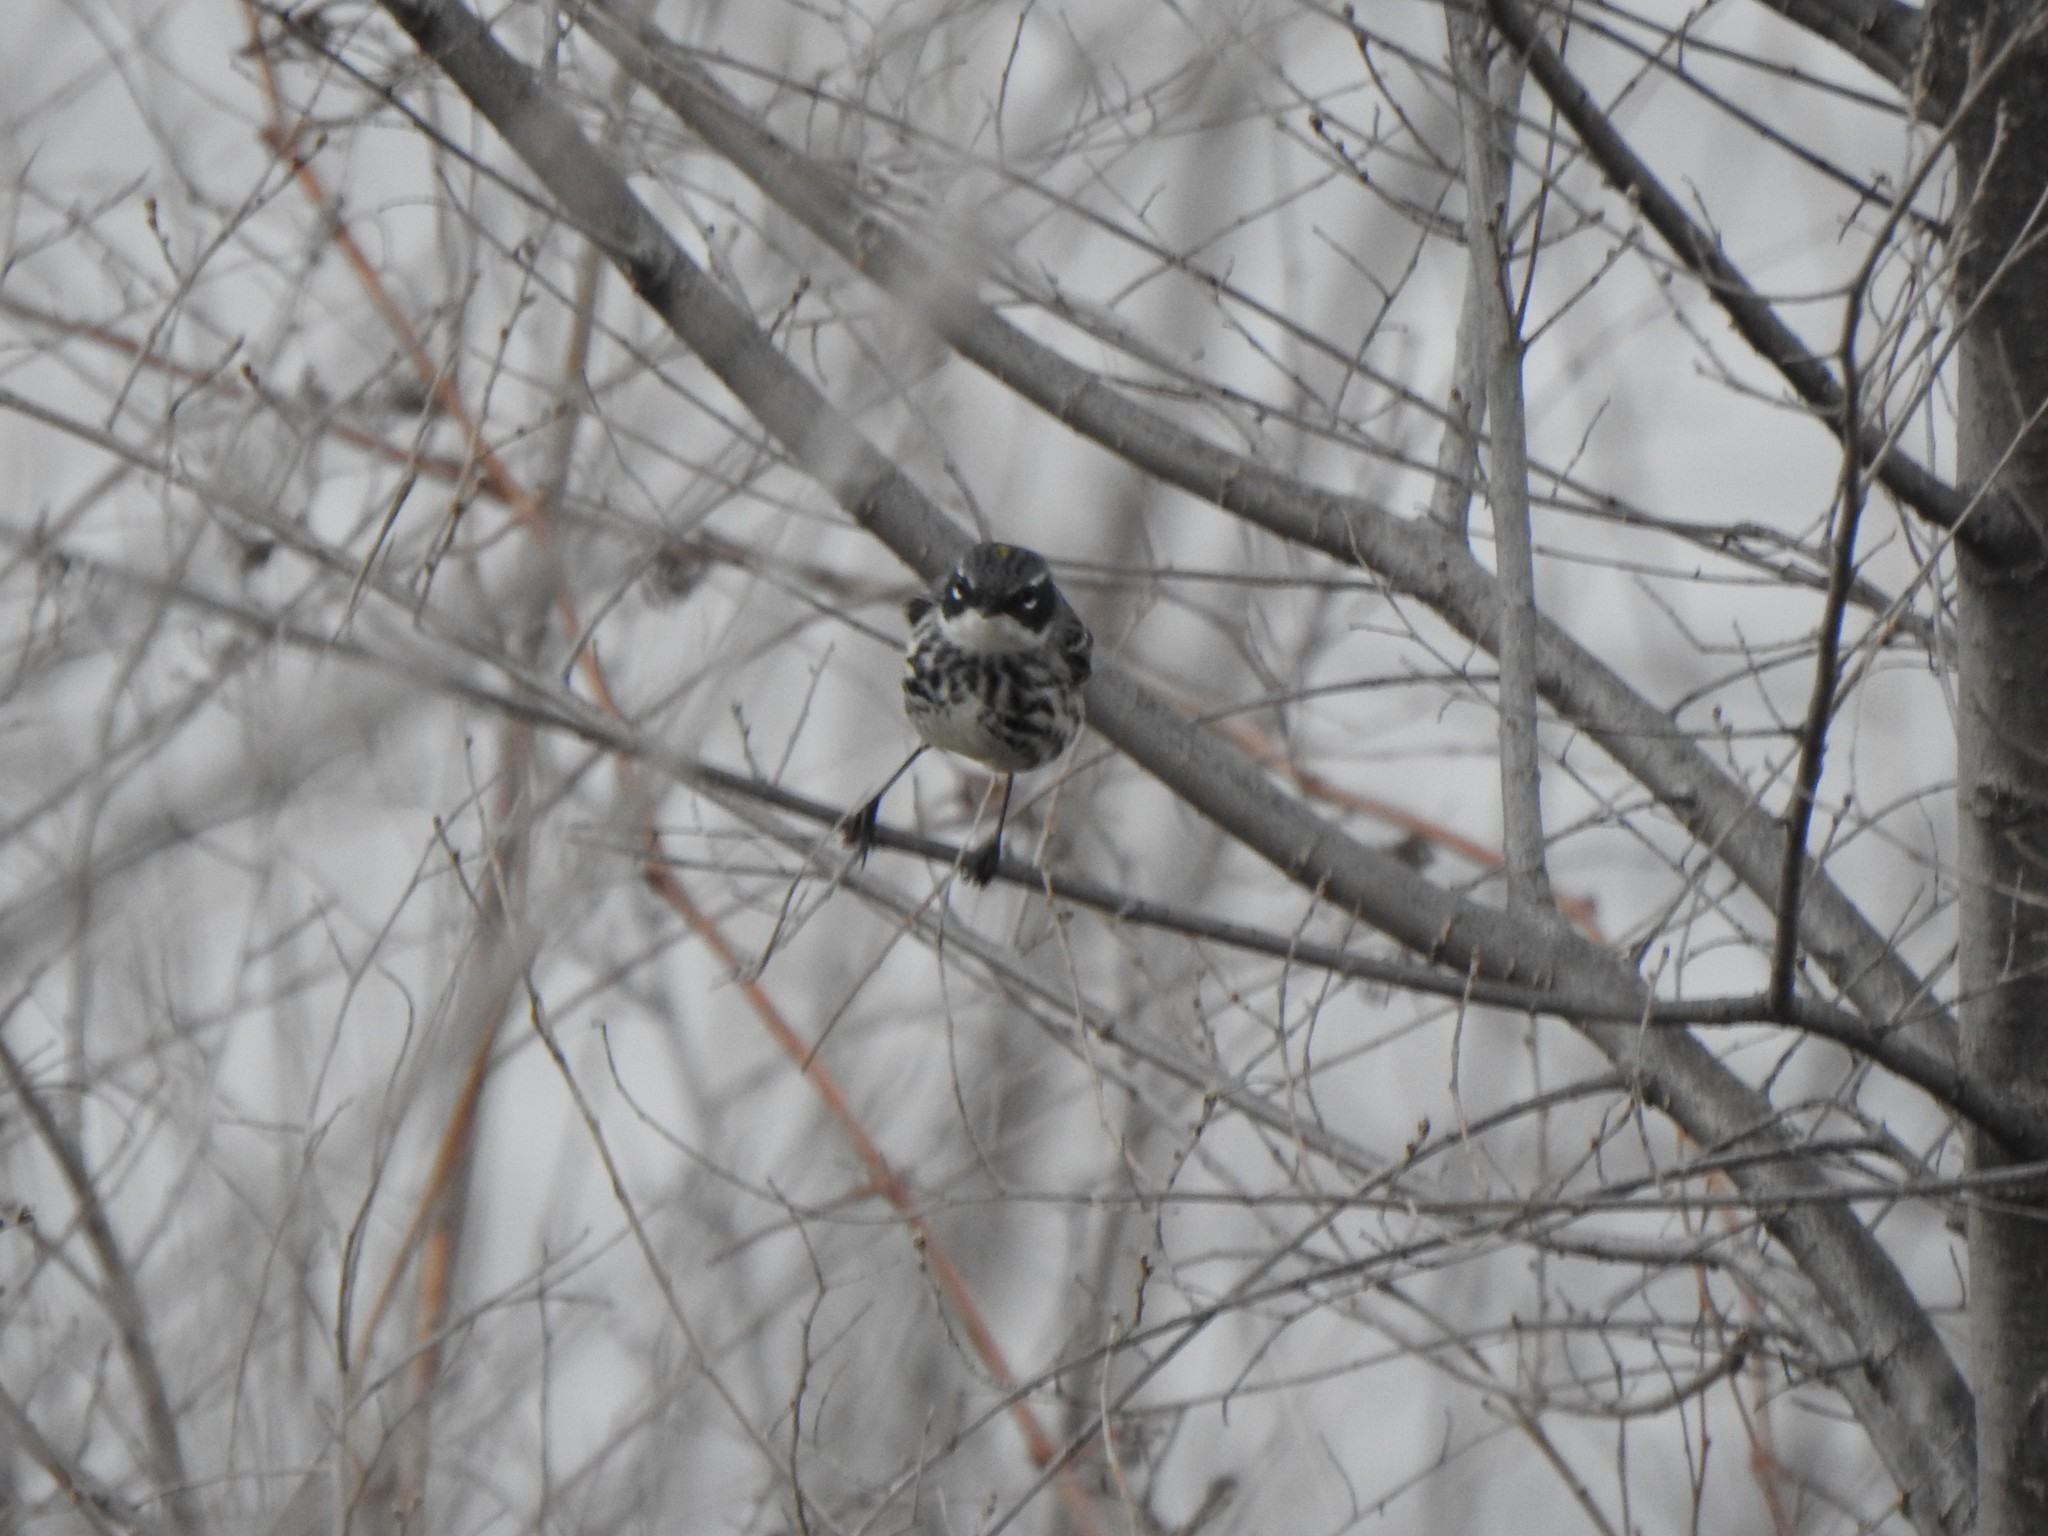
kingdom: Animalia
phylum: Chordata
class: Aves
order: Passeriformes
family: Parulidae
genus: Setophaga
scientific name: Setophaga coronata
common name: Myrtle warbler
